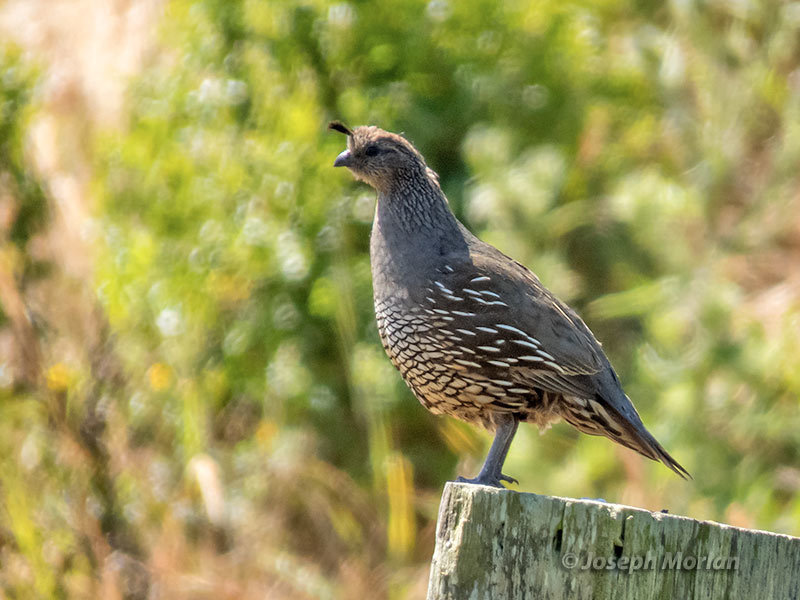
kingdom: Animalia
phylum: Chordata
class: Aves
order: Galliformes
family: Odontophoridae
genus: Callipepla
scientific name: Callipepla californica
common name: California quail
